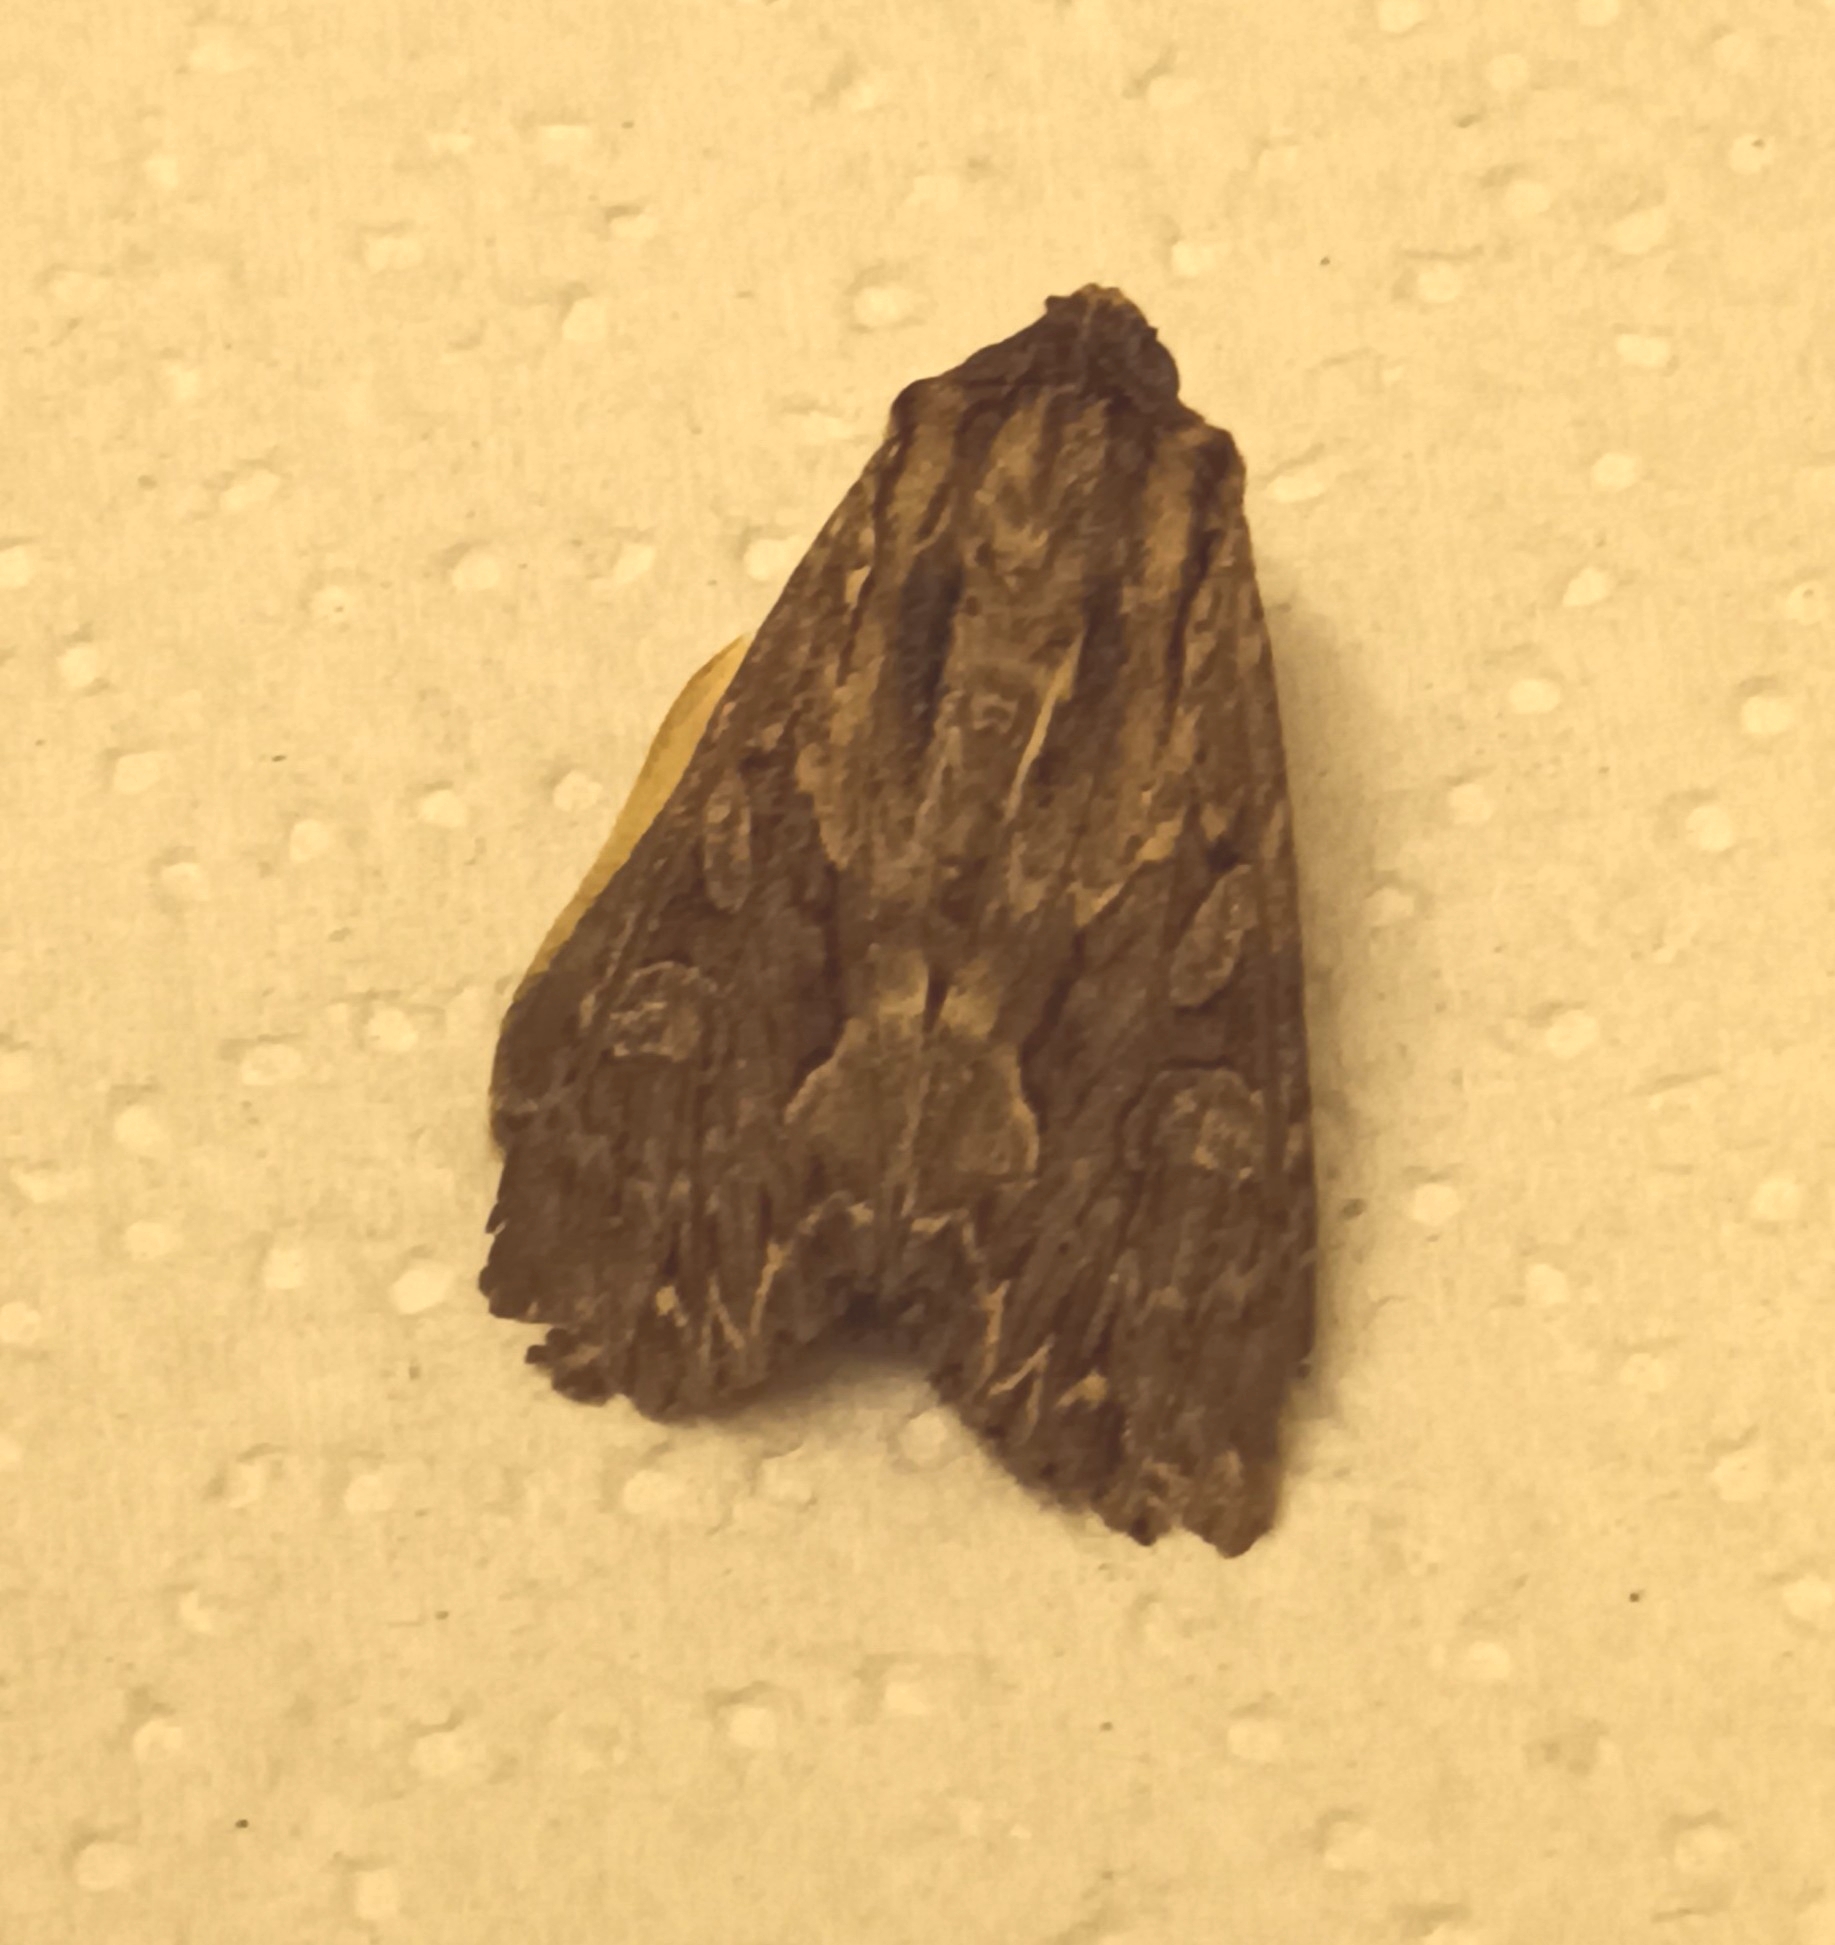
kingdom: Animalia
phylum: Arthropoda
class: Insecta
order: Lepidoptera
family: Noctuidae
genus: Apamea
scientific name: Apamea monoglypha
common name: Dark arches
